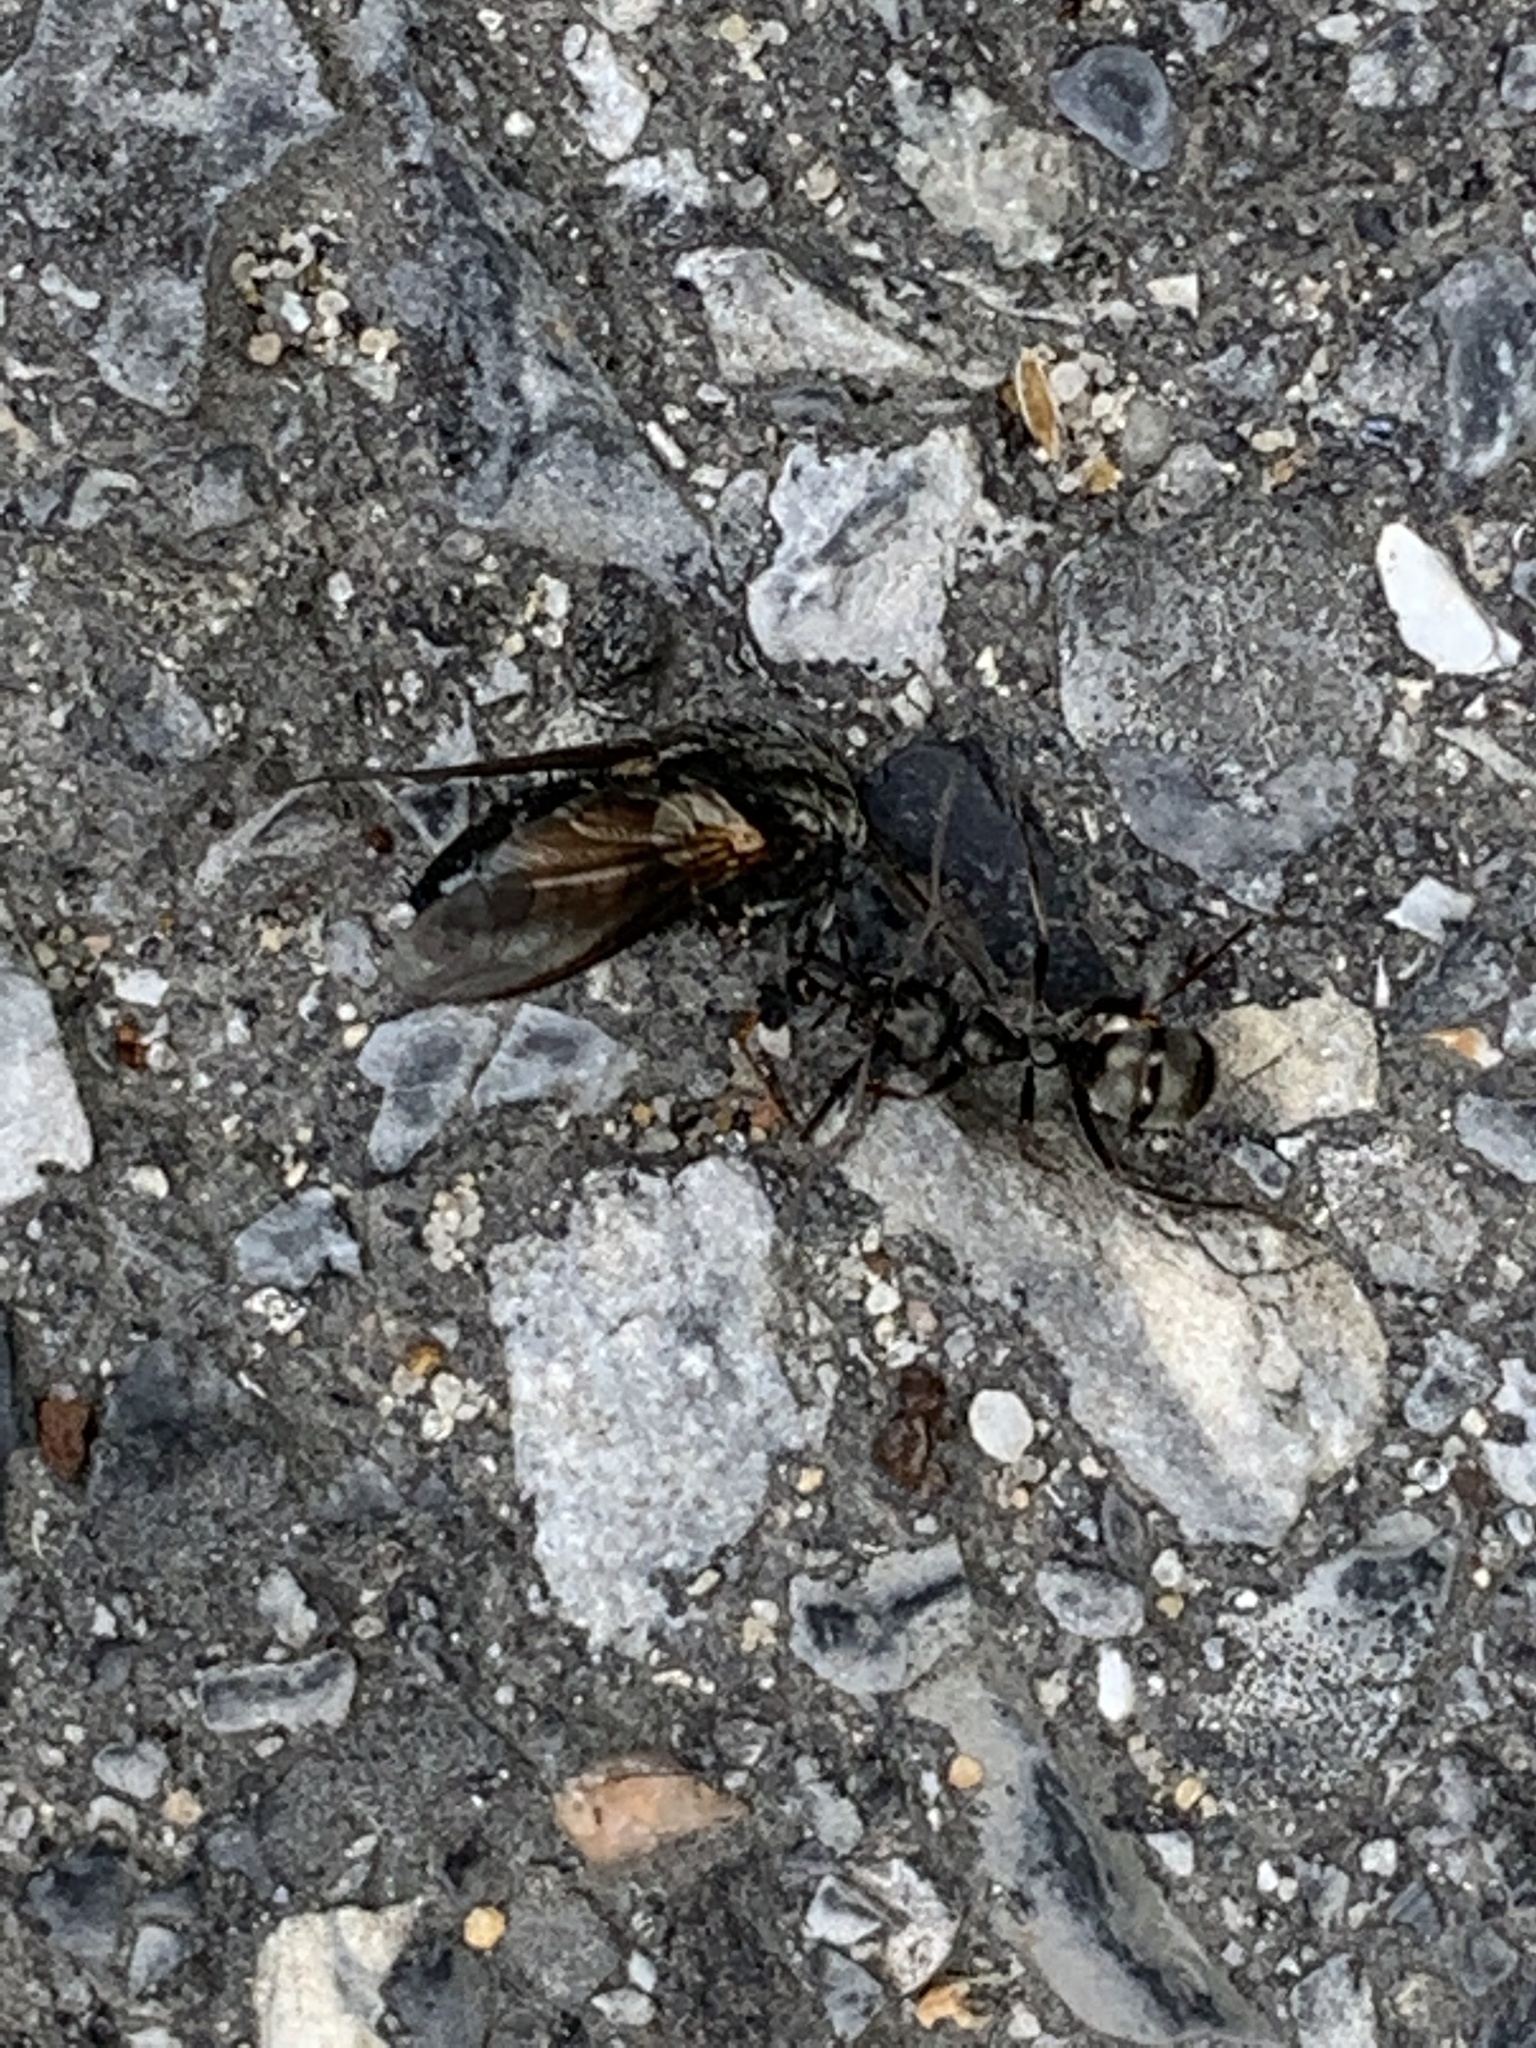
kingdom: Animalia
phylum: Arthropoda
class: Insecta
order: Hymenoptera
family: Formicidae
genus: Formica
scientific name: Formica
